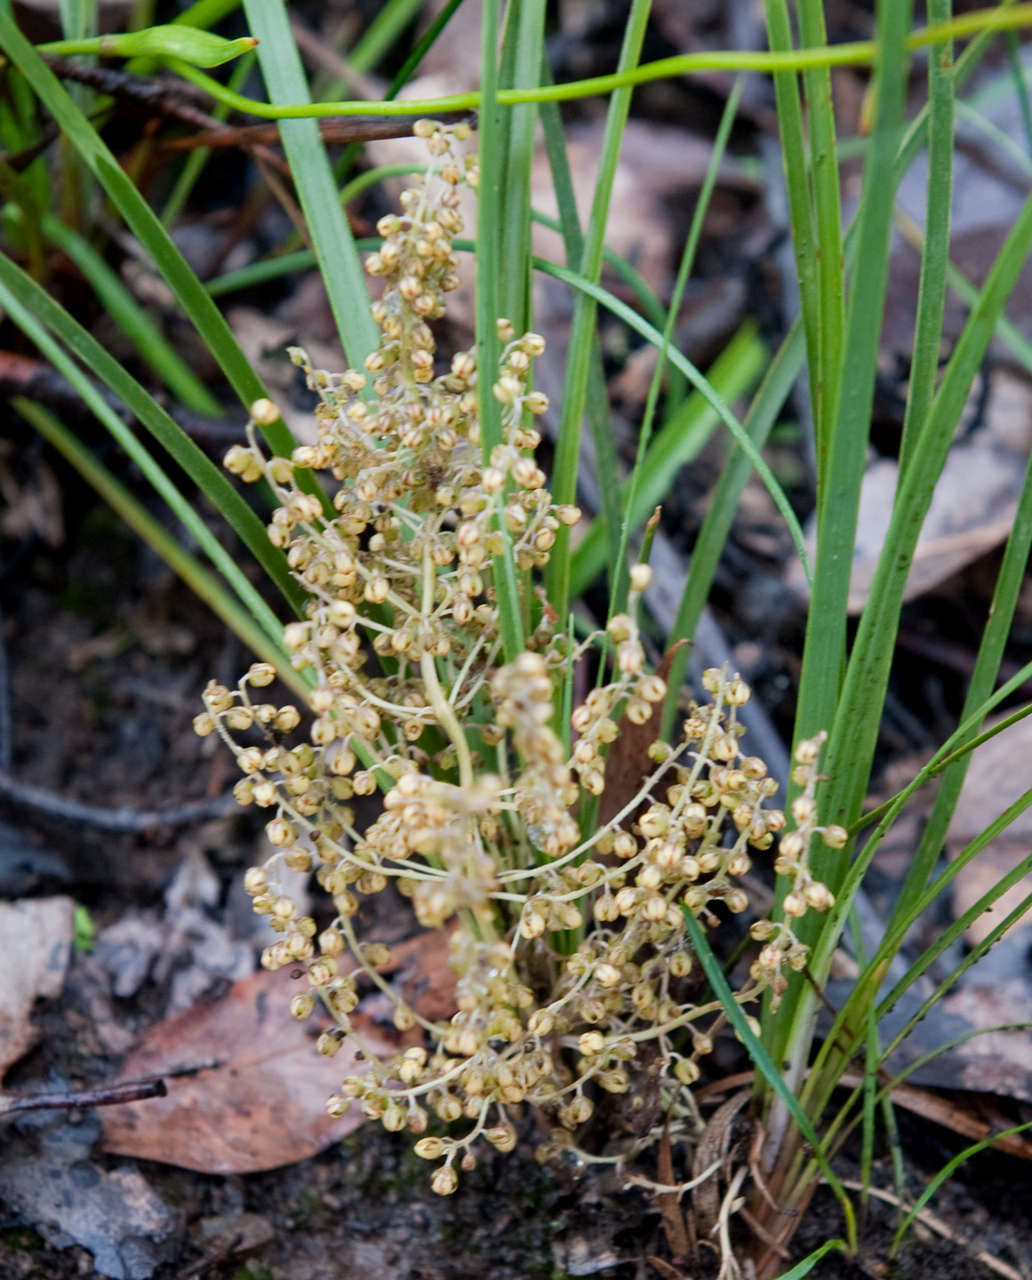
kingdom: Plantae
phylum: Tracheophyta
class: Liliopsida
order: Asparagales
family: Asparagaceae
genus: Lomandra
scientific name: Lomandra filiformis
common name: Wattle mat-rush
